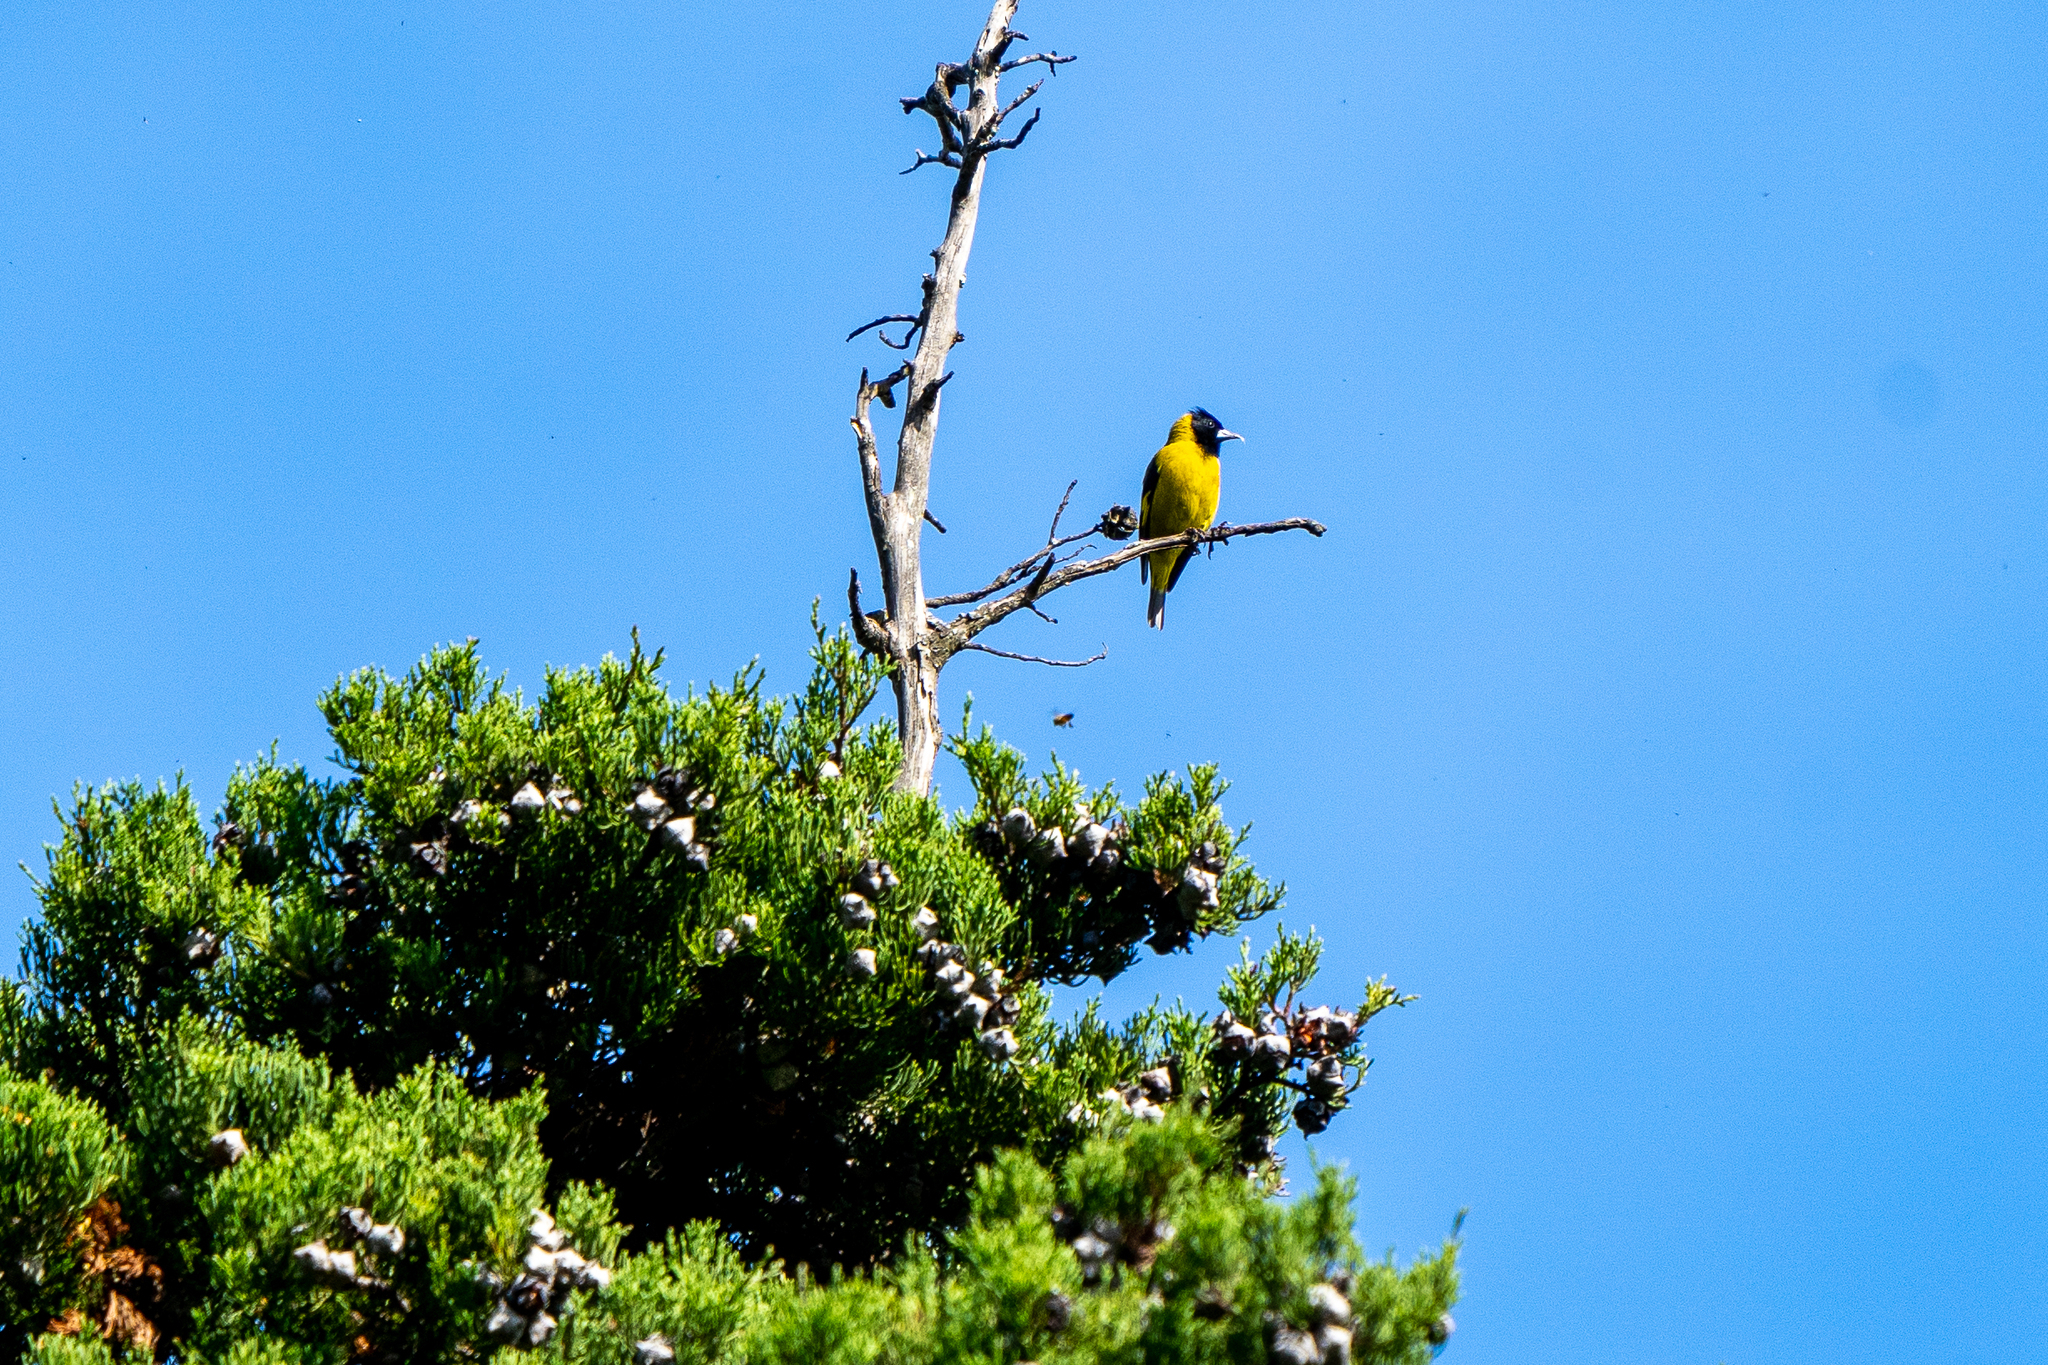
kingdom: Animalia
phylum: Chordata
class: Aves
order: Passeriformes
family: Fringillidae
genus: Spinus
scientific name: Spinus notatus
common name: Black-headed siskin
